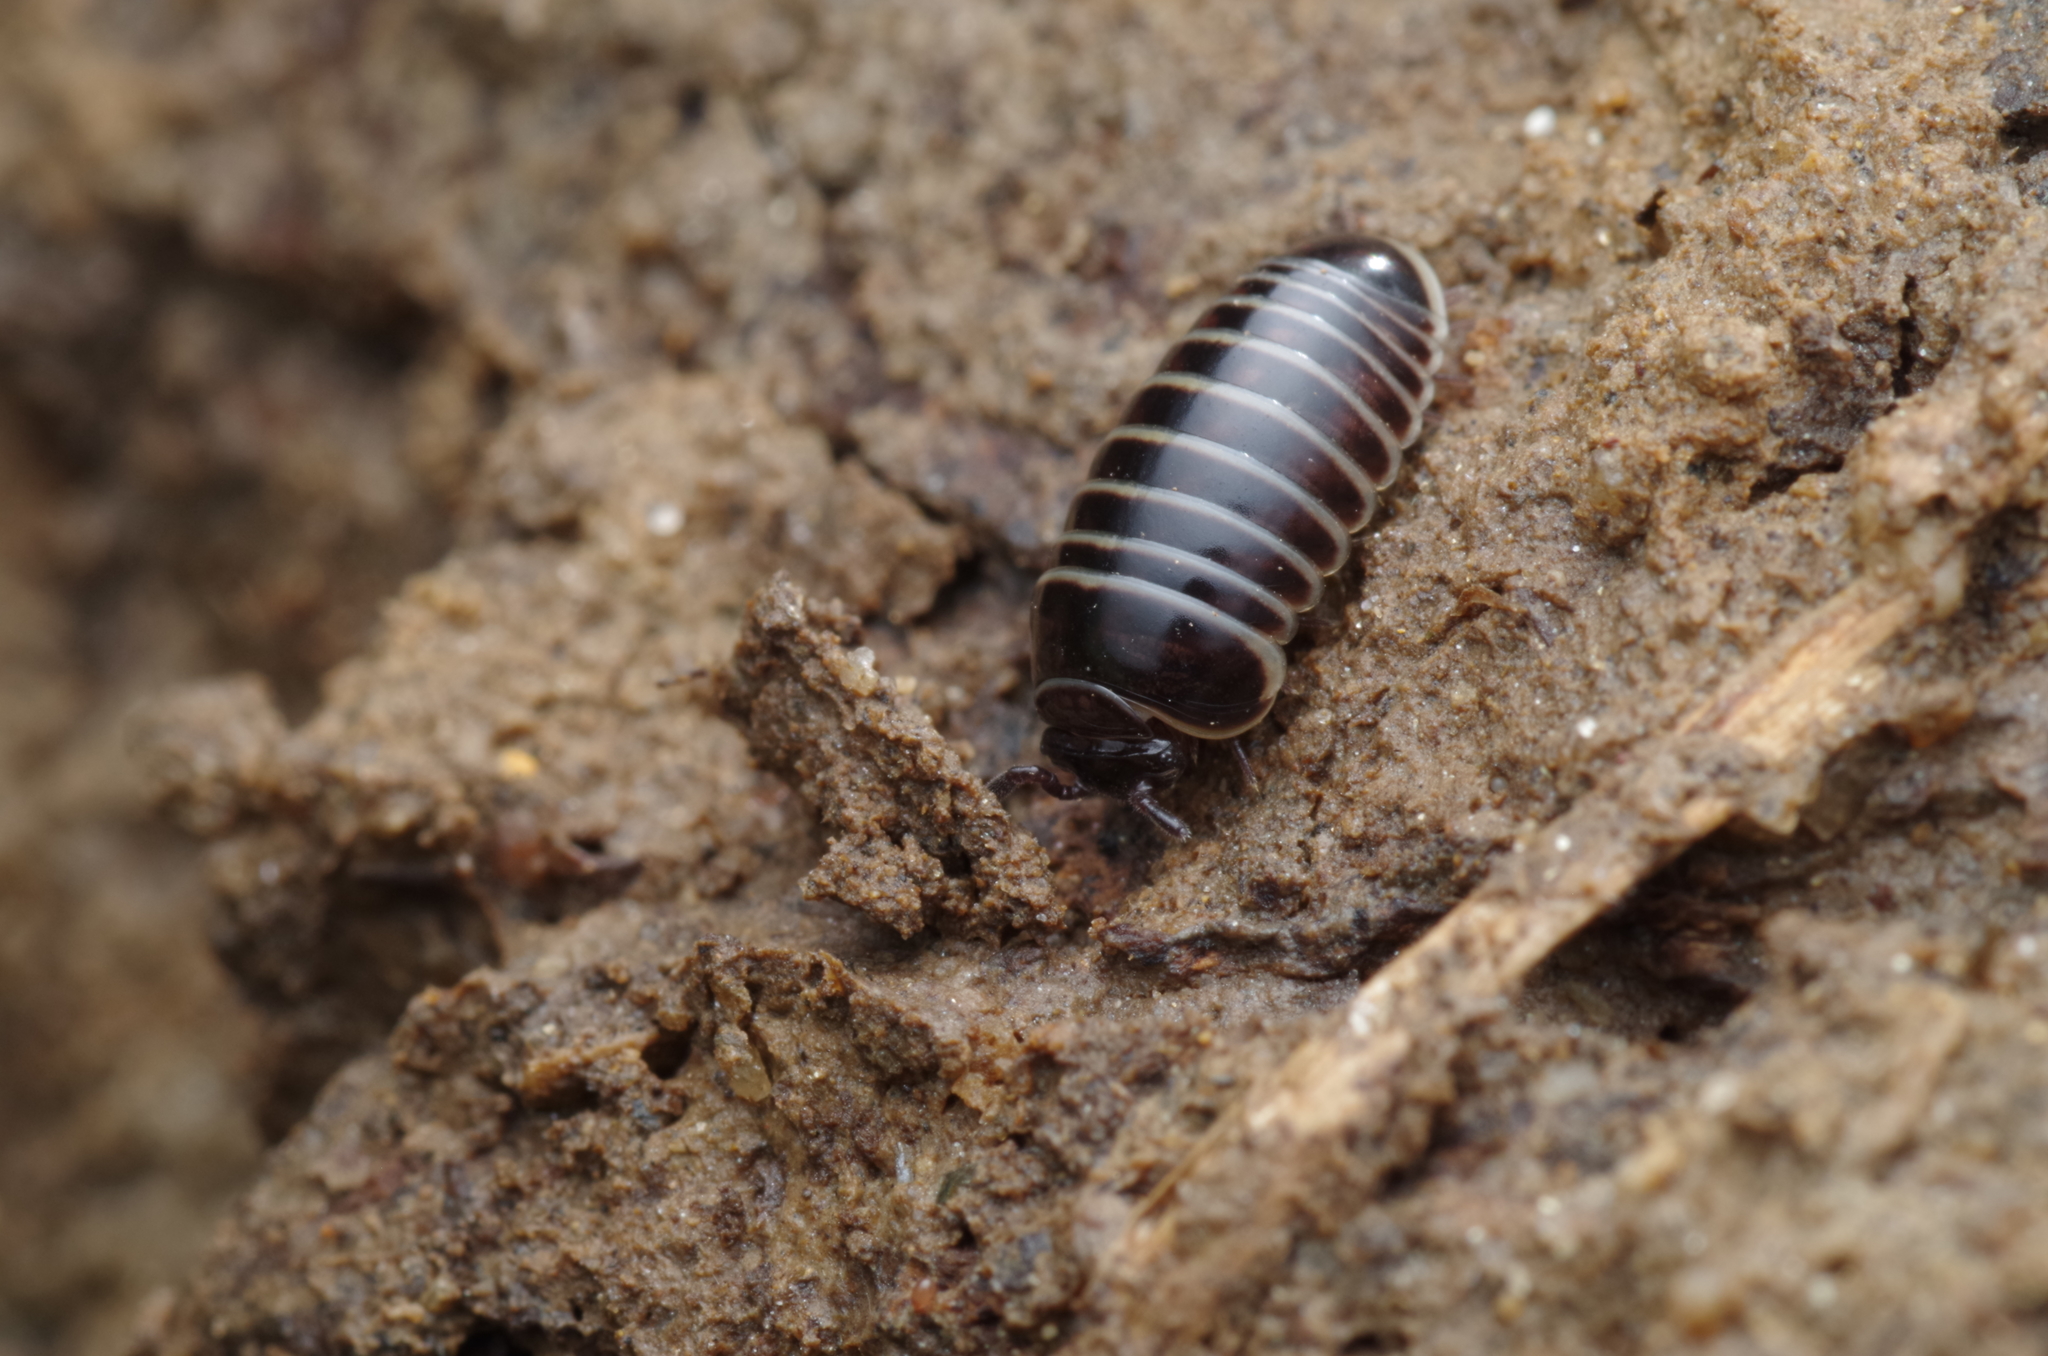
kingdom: Animalia
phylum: Arthropoda
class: Diplopoda
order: Glomerida
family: Glomeridae
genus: Glomeris
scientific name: Glomeris marginata
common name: Bordered pill millipede
